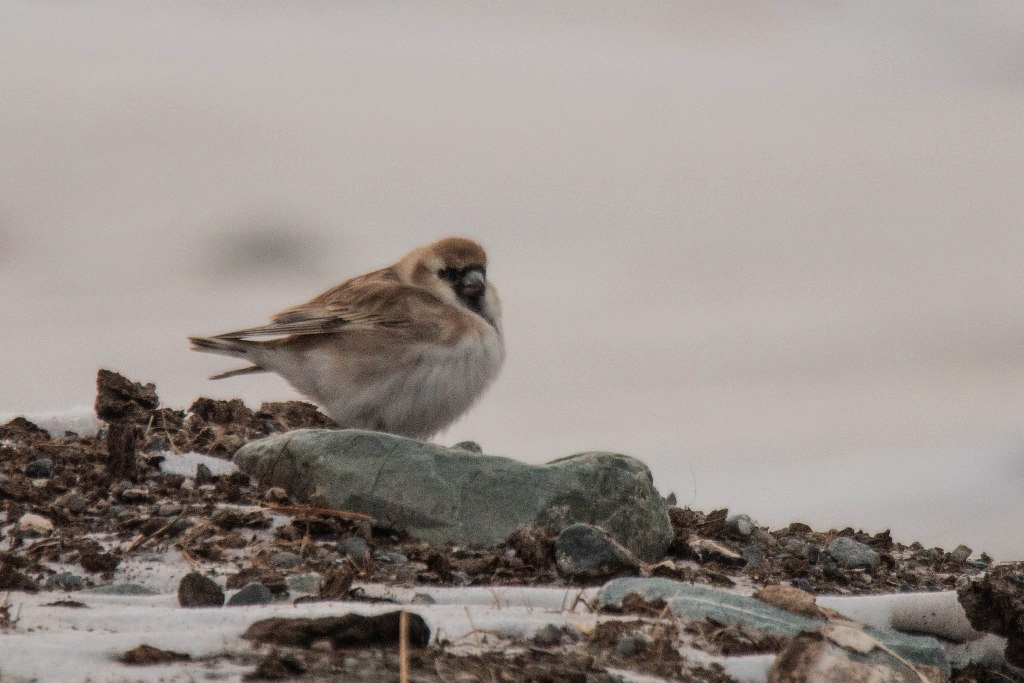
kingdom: Animalia
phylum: Chordata
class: Aves
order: Passeriformes
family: Passeridae
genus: Pyrgilauda
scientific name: Pyrgilauda davidiana
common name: Pere david's snowfinch
